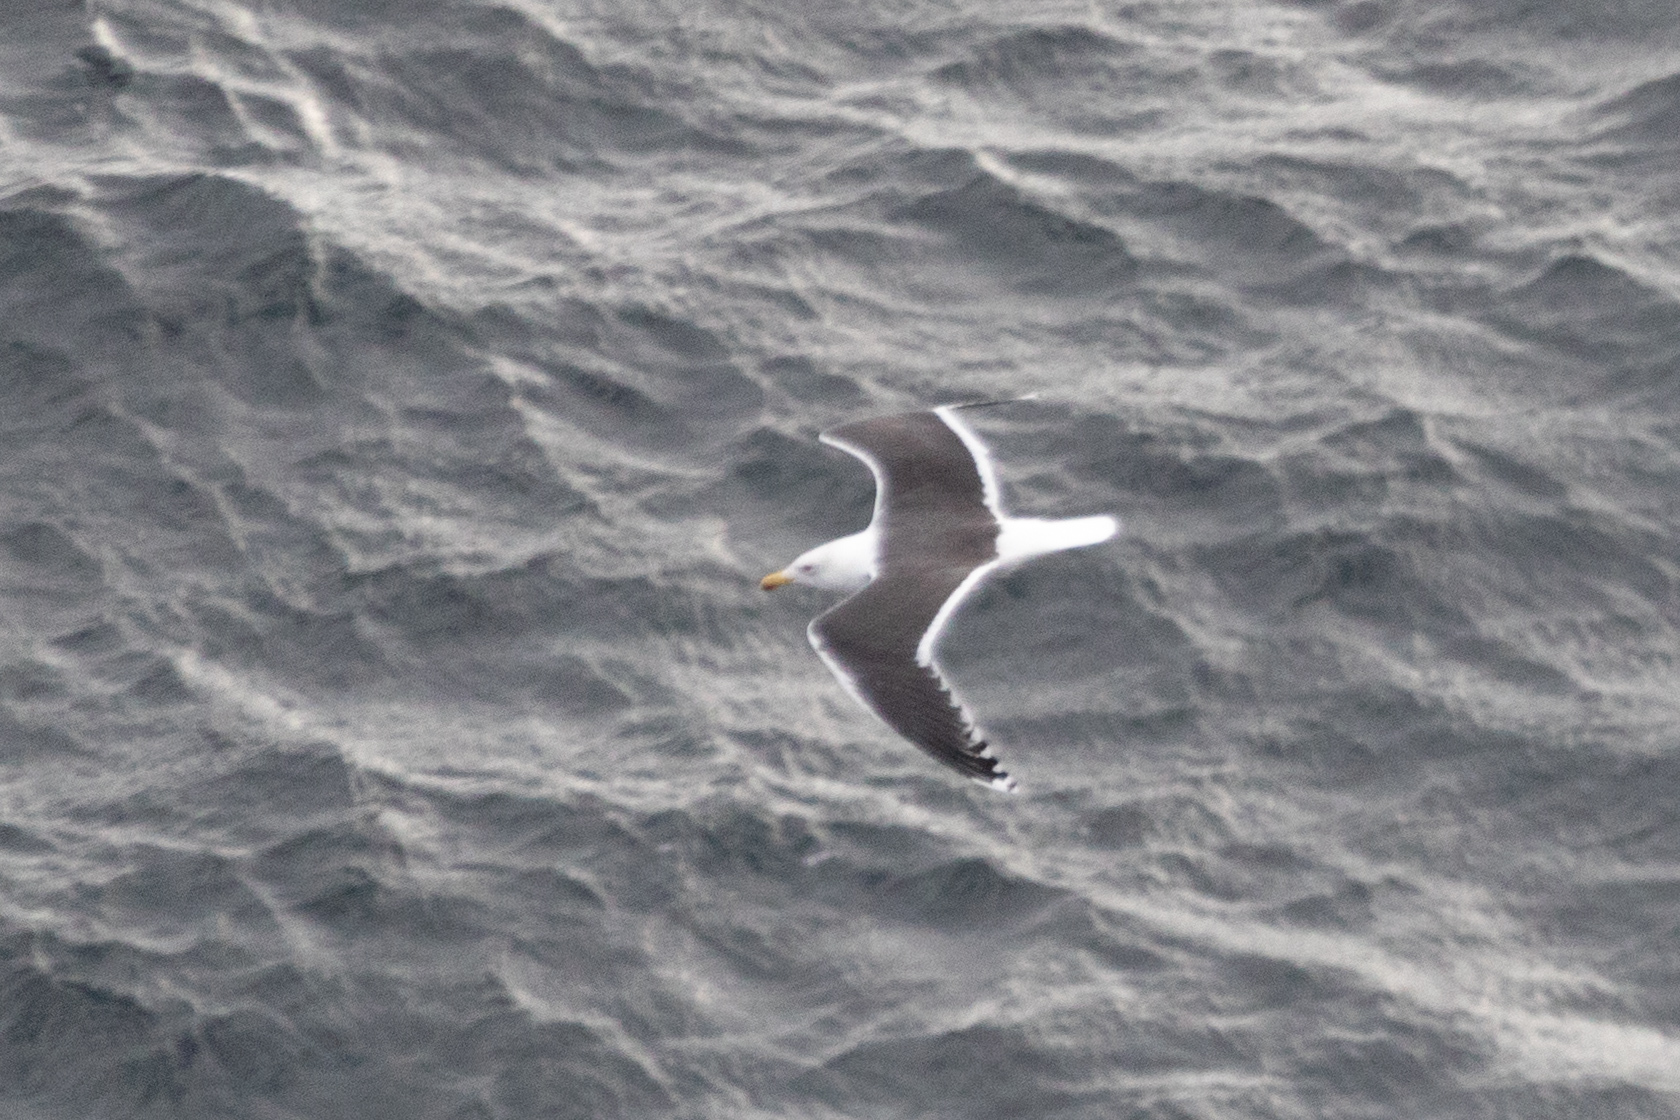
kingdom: Animalia
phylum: Chordata
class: Aves
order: Charadriiformes
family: Laridae
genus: Larus
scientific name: Larus marinus
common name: Great black-backed gull
